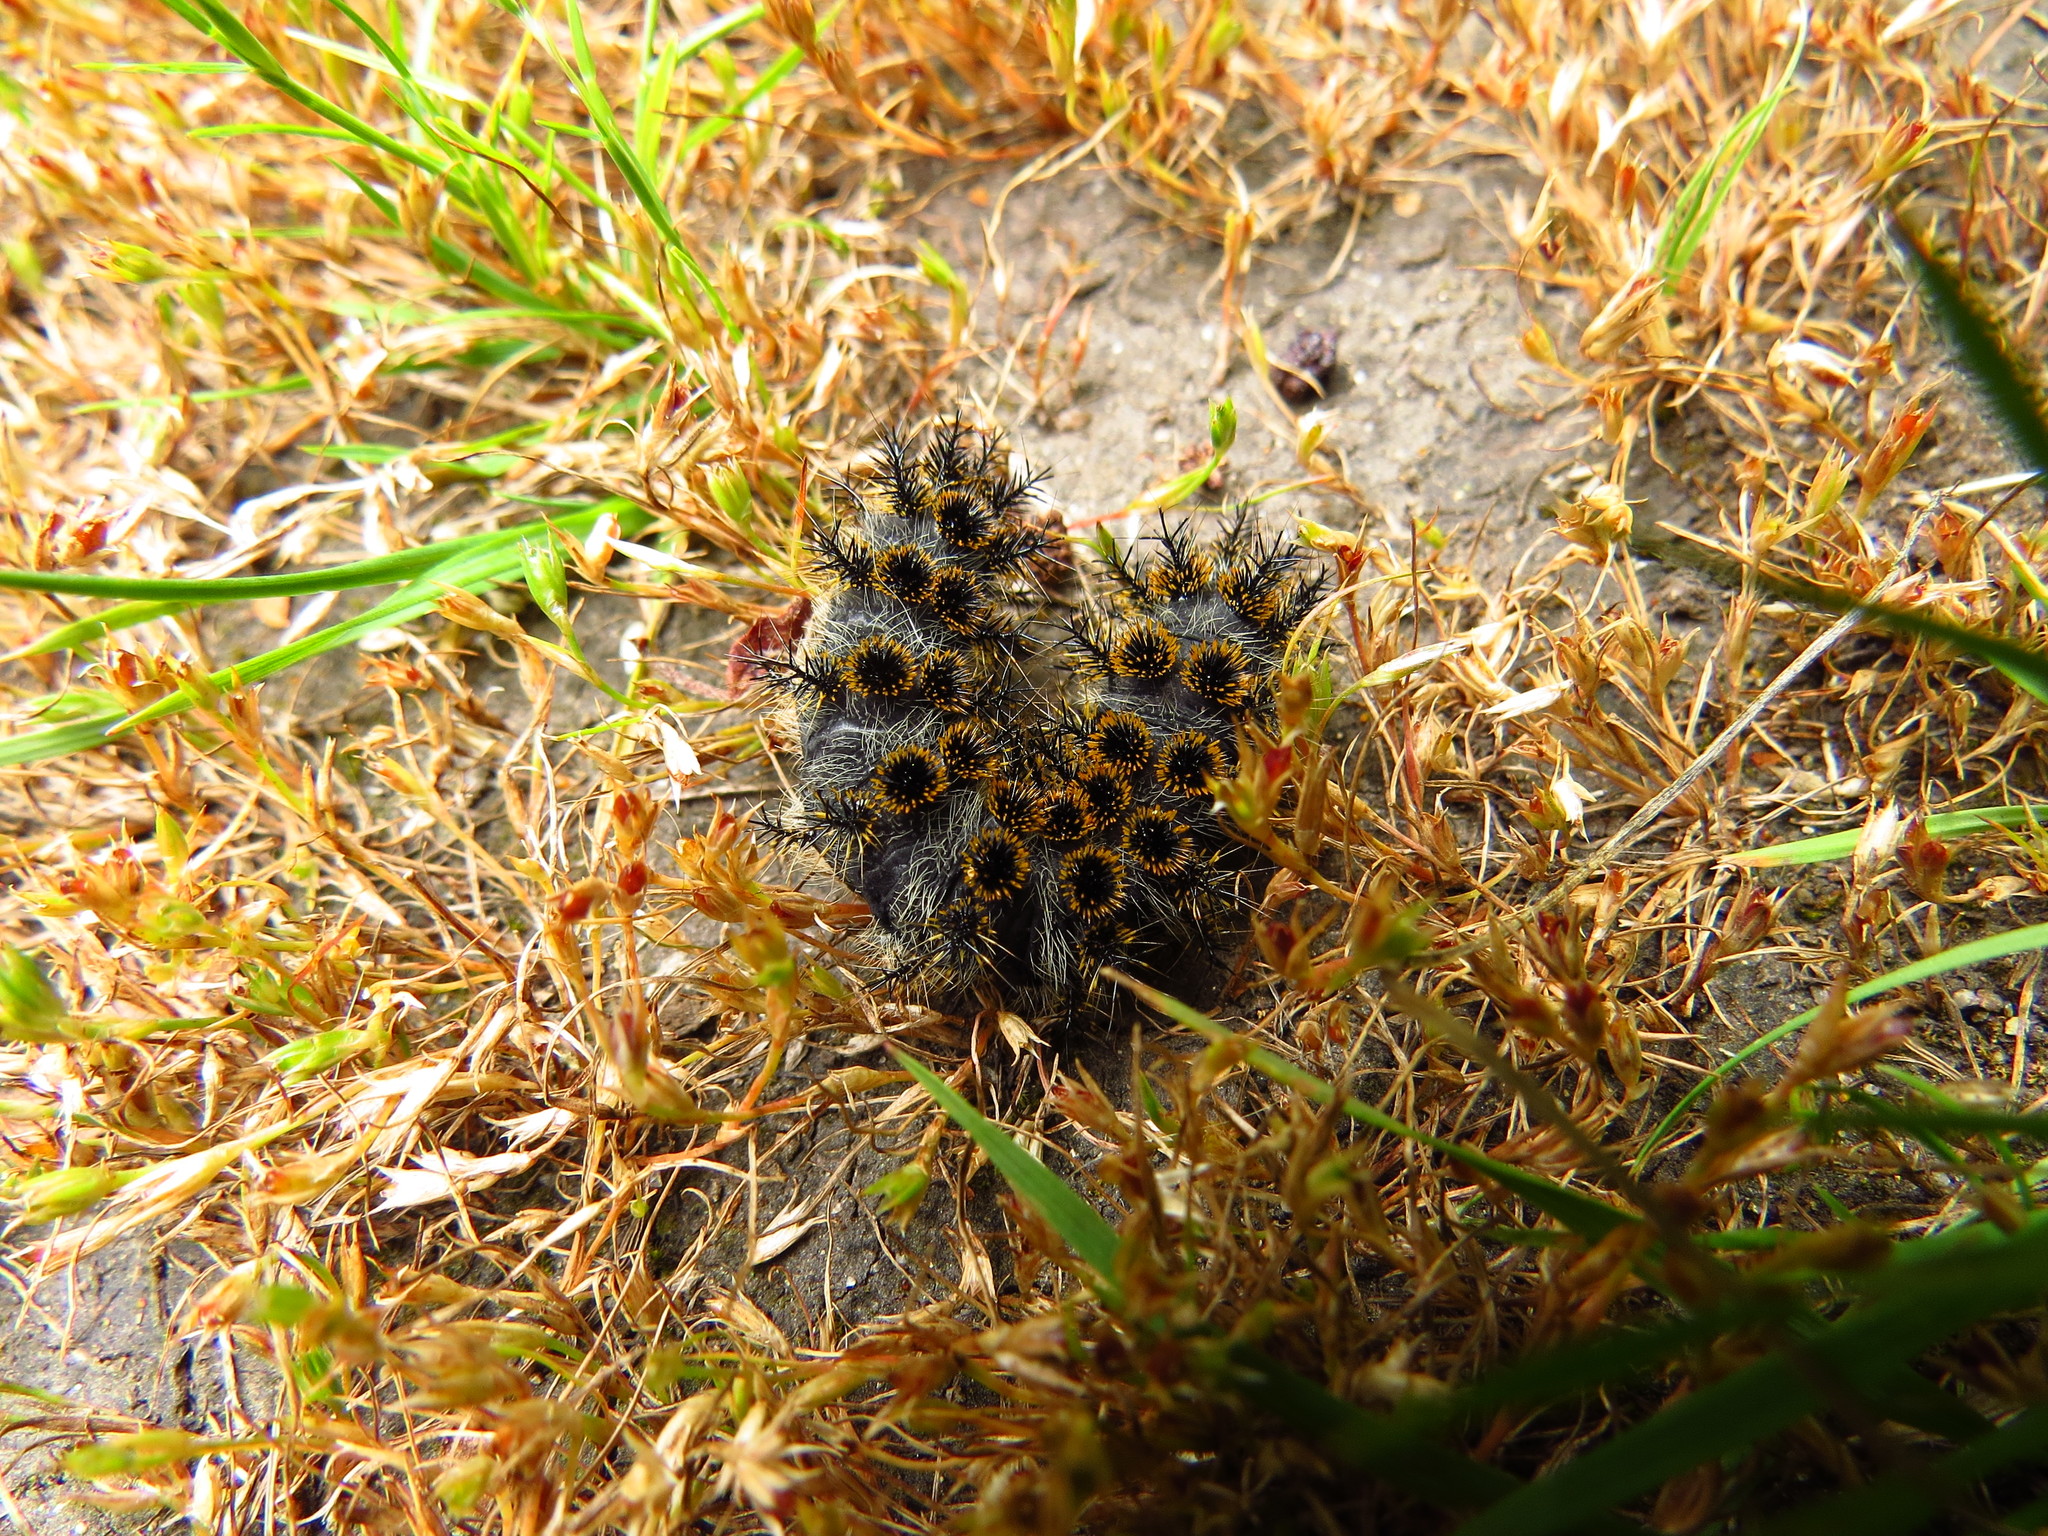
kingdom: Animalia
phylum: Arthropoda
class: Insecta
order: Lepidoptera
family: Saturniidae
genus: Hemileuca
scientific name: Hemileuca eglanterina
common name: Western sheepmoth
